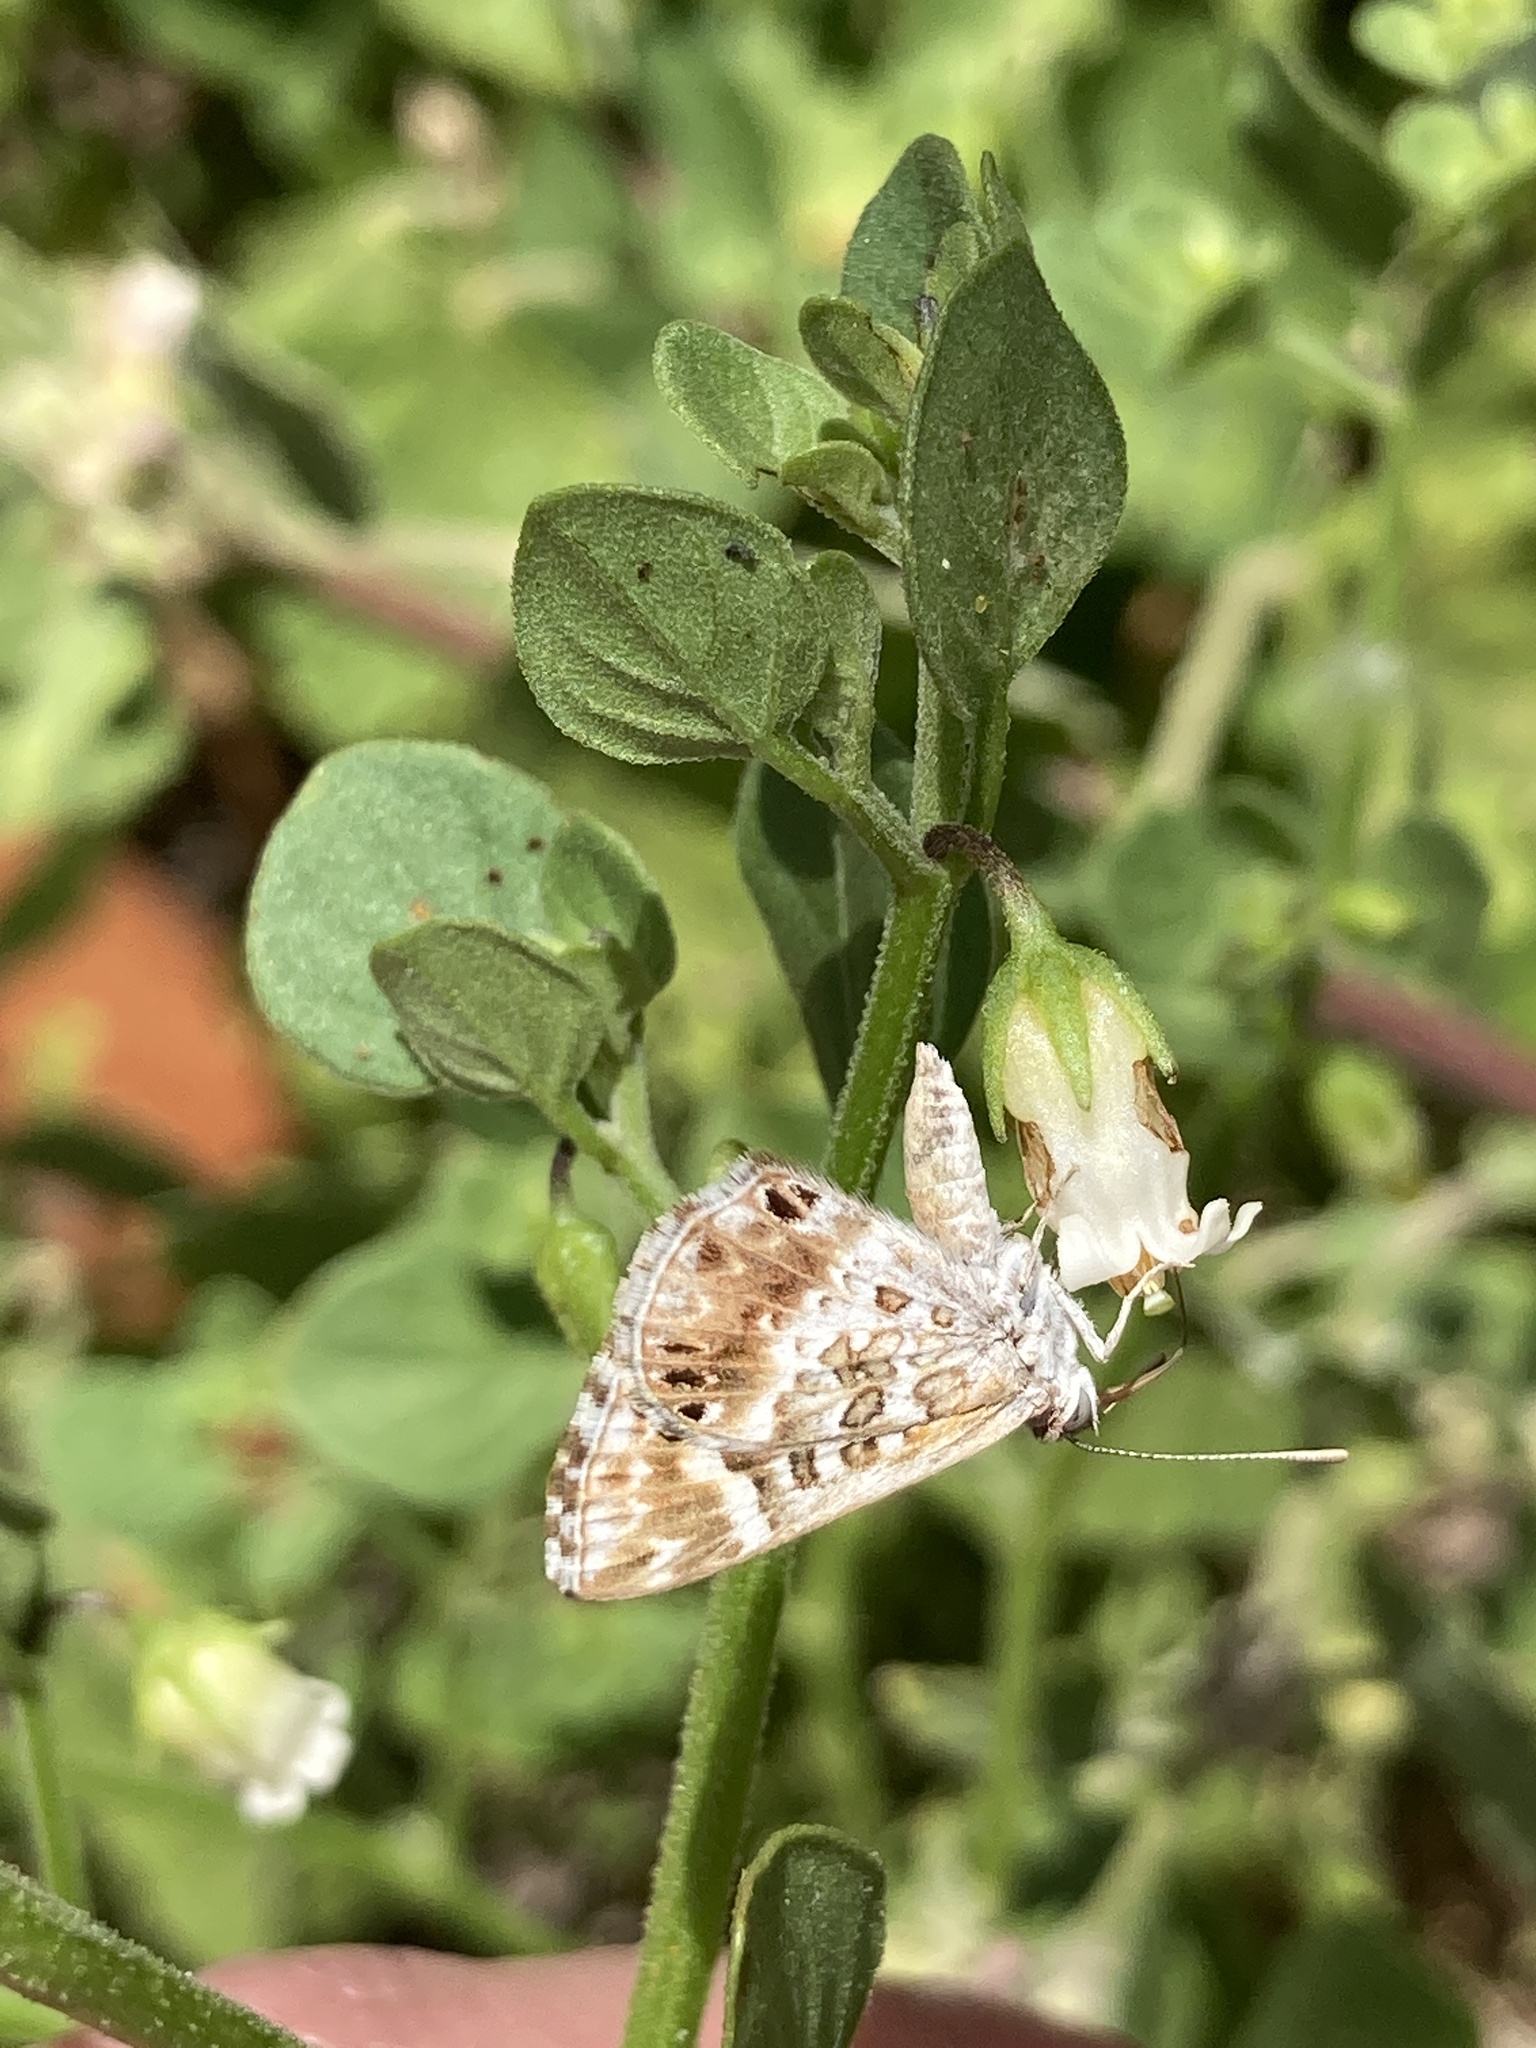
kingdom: Animalia
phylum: Arthropoda
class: Insecta
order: Lepidoptera
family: Lycaenidae
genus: Aricoris
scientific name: Aricoris signata
